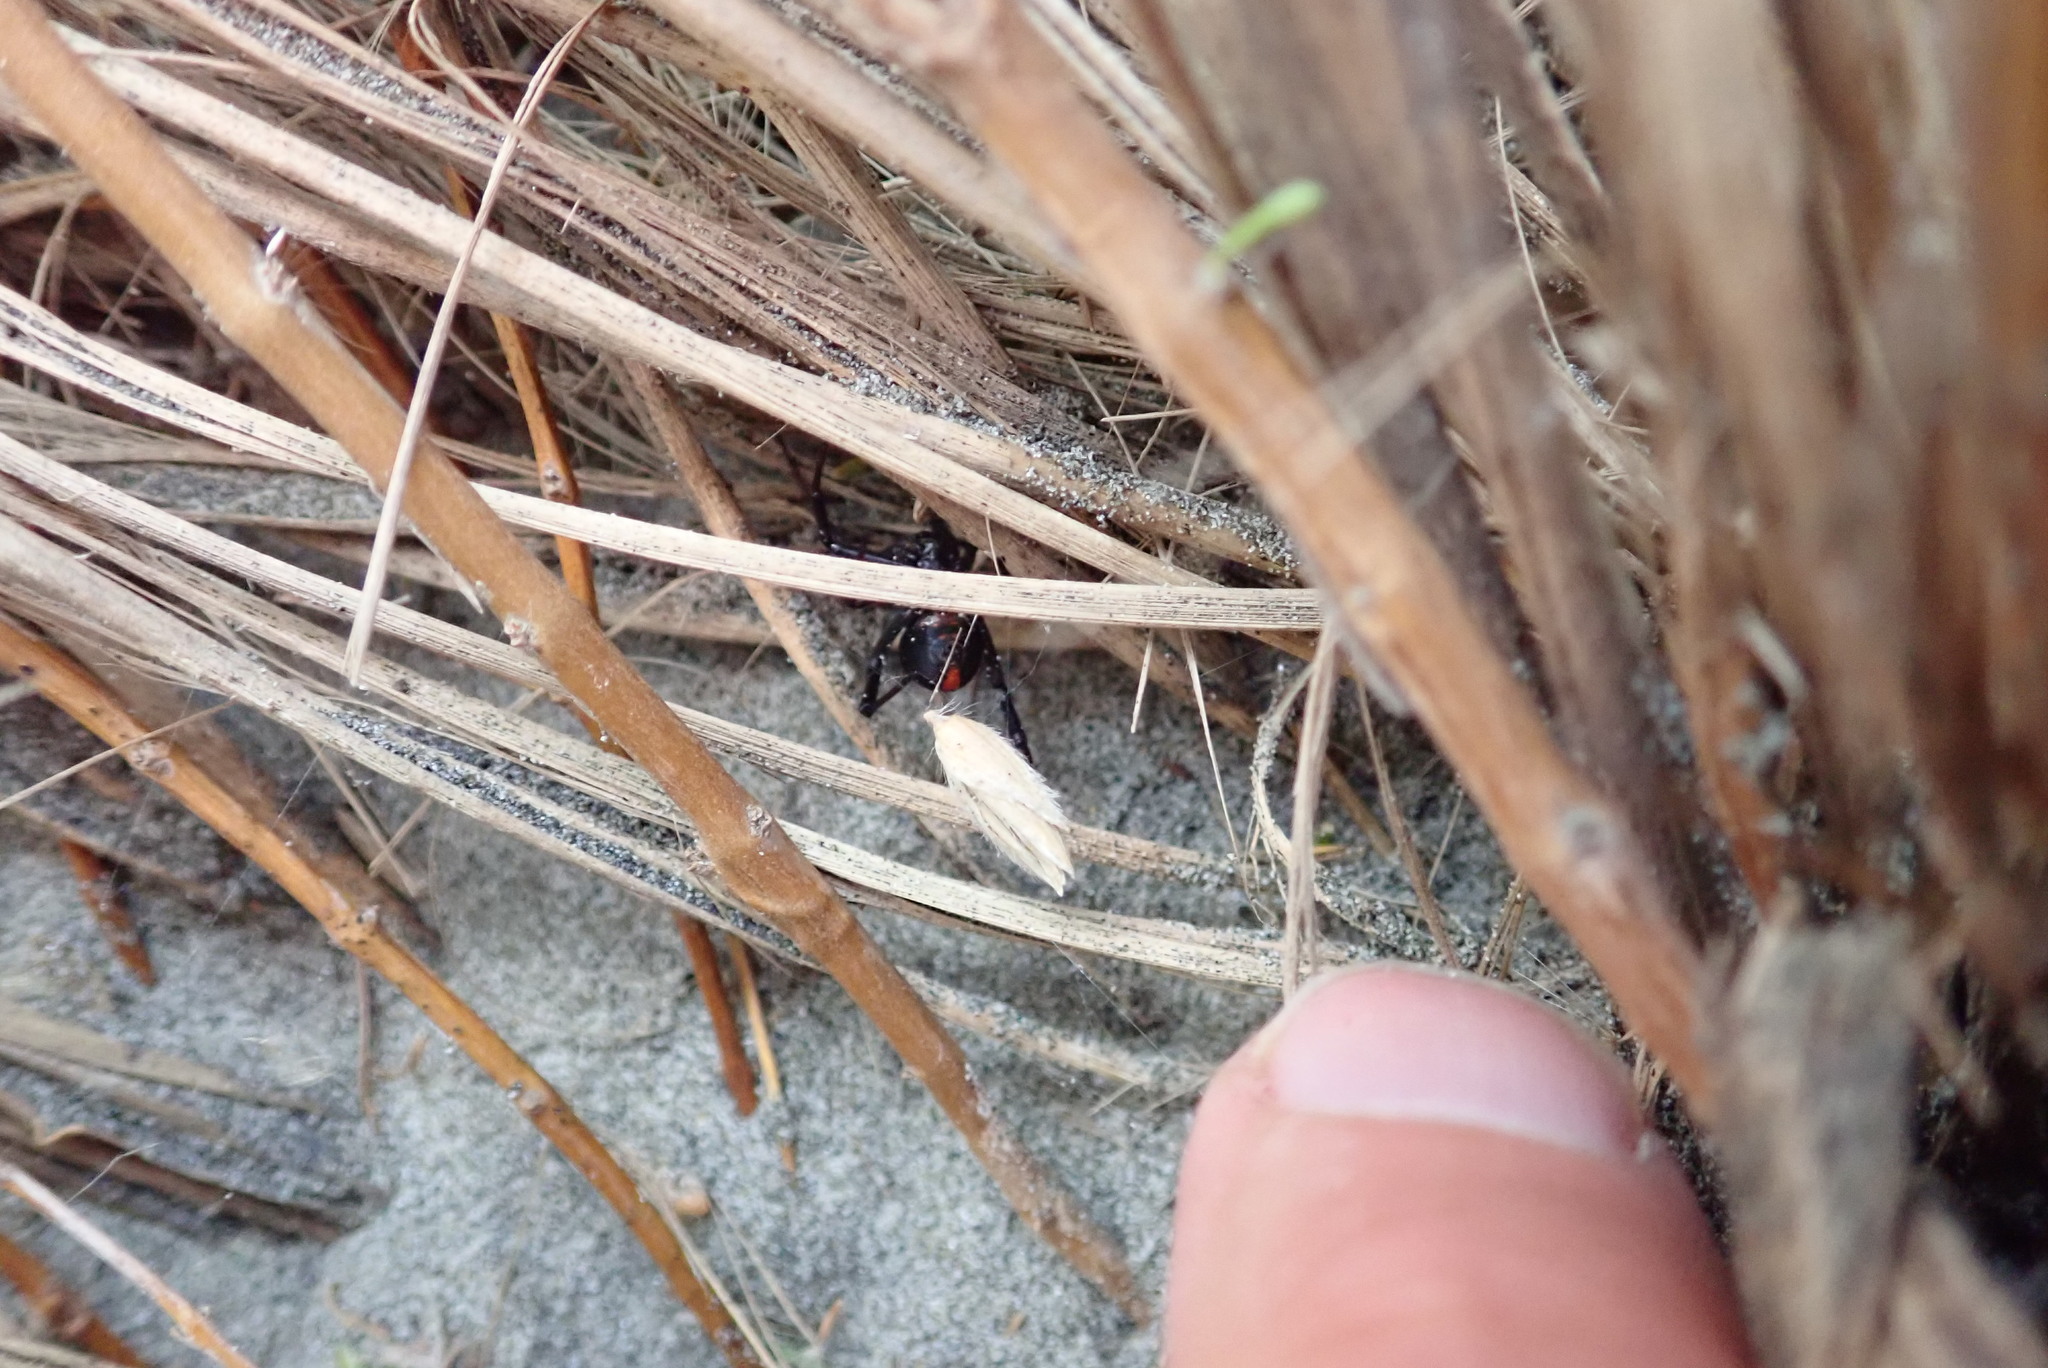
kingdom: Animalia
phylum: Arthropoda
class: Arachnida
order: Araneae
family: Theridiidae
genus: Latrodectus
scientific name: Latrodectus katipo
